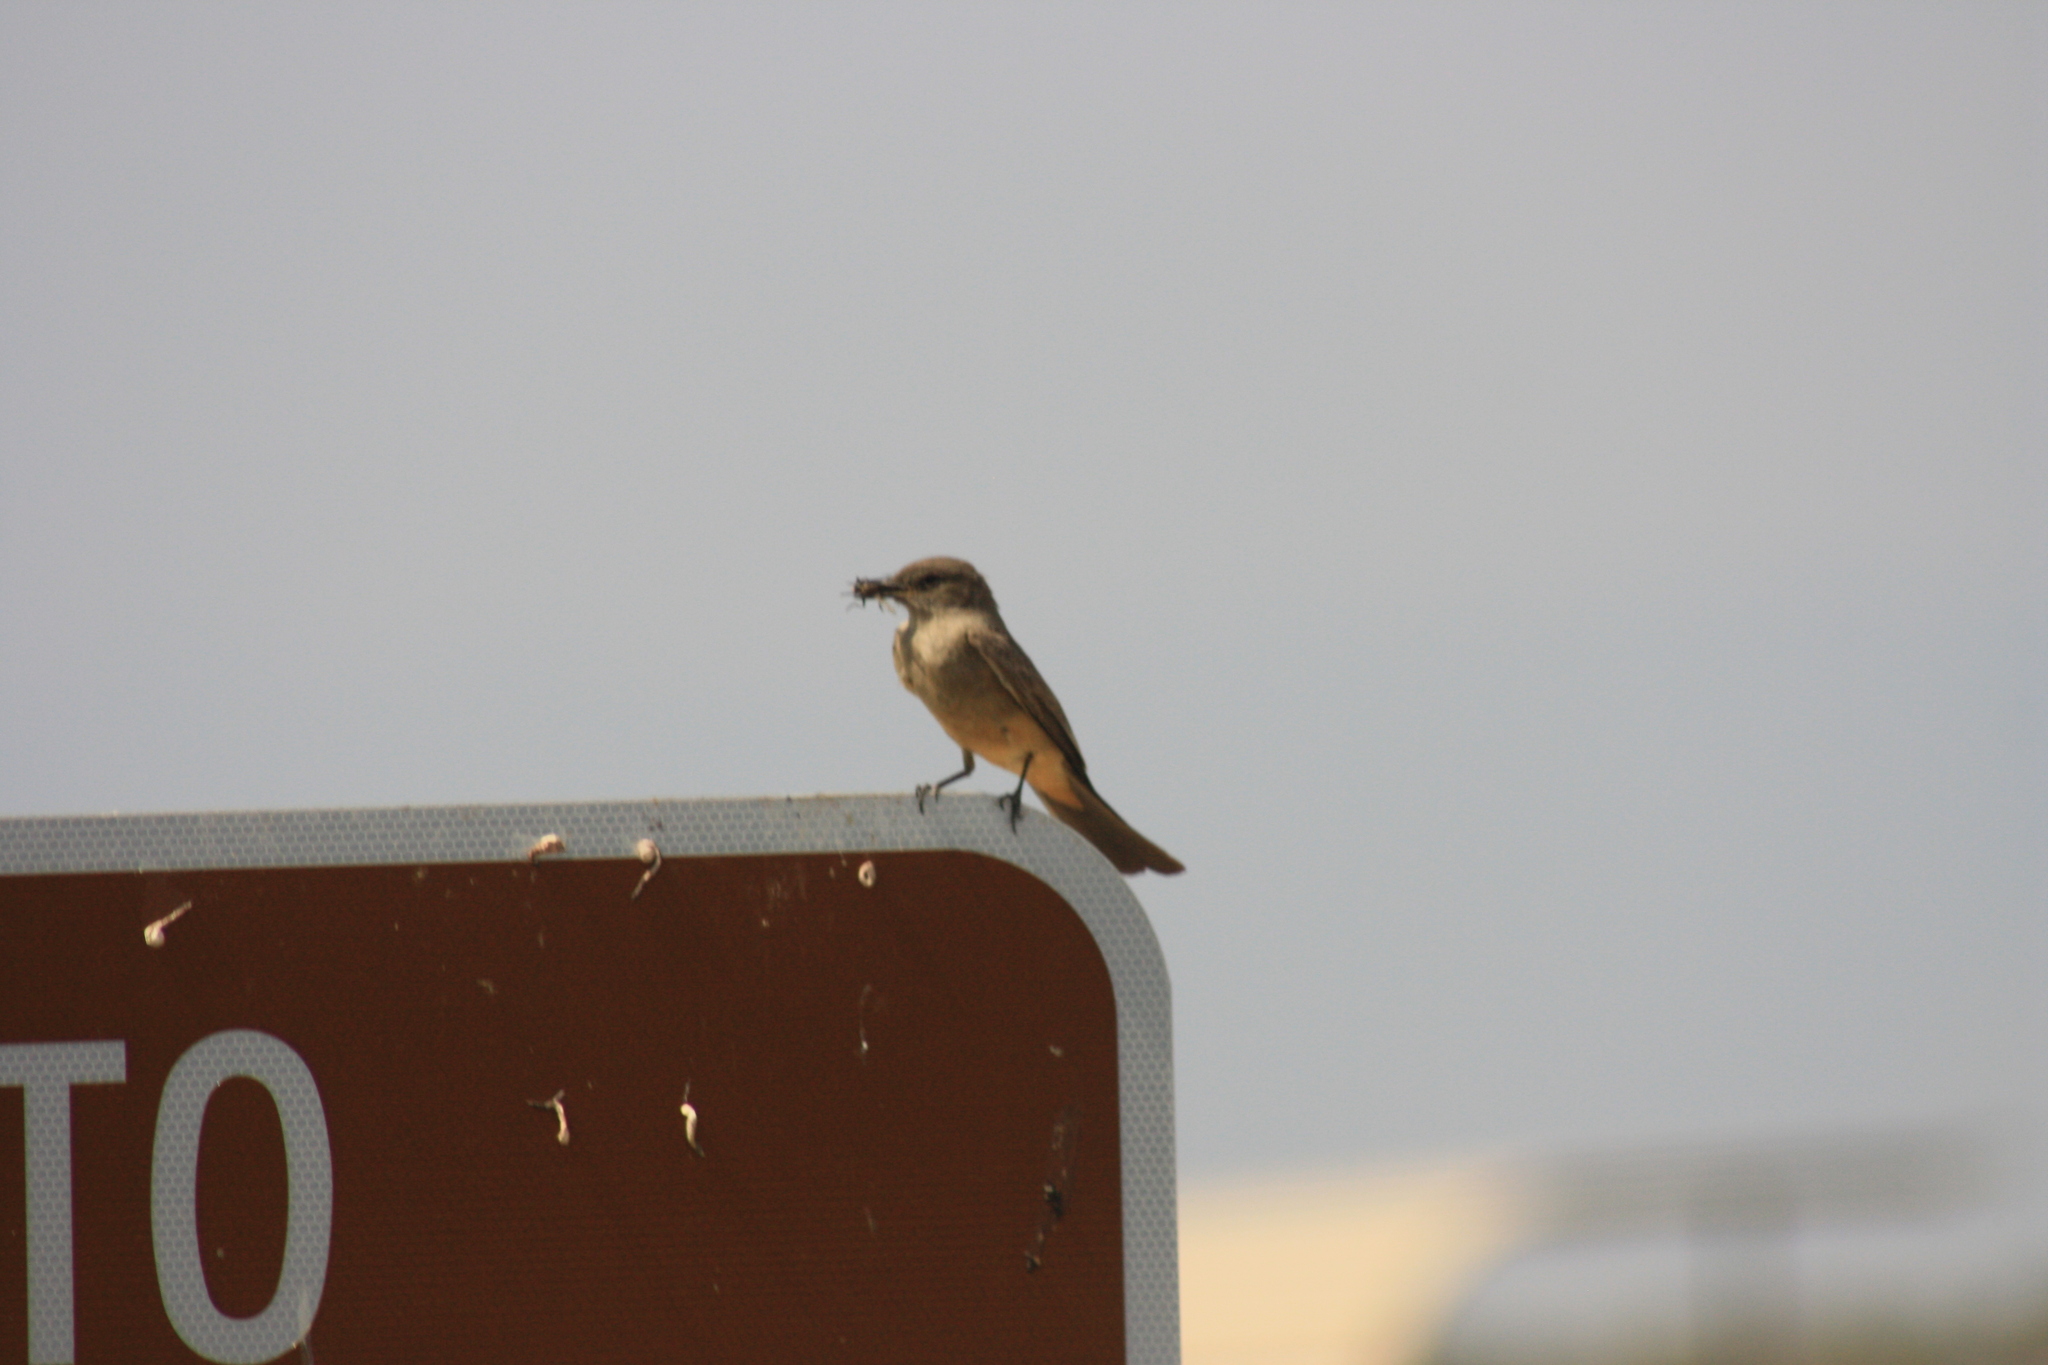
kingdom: Animalia
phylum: Chordata
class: Aves
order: Passeriformes
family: Tyrannidae
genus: Sayornis
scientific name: Sayornis saya
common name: Say's phoebe
